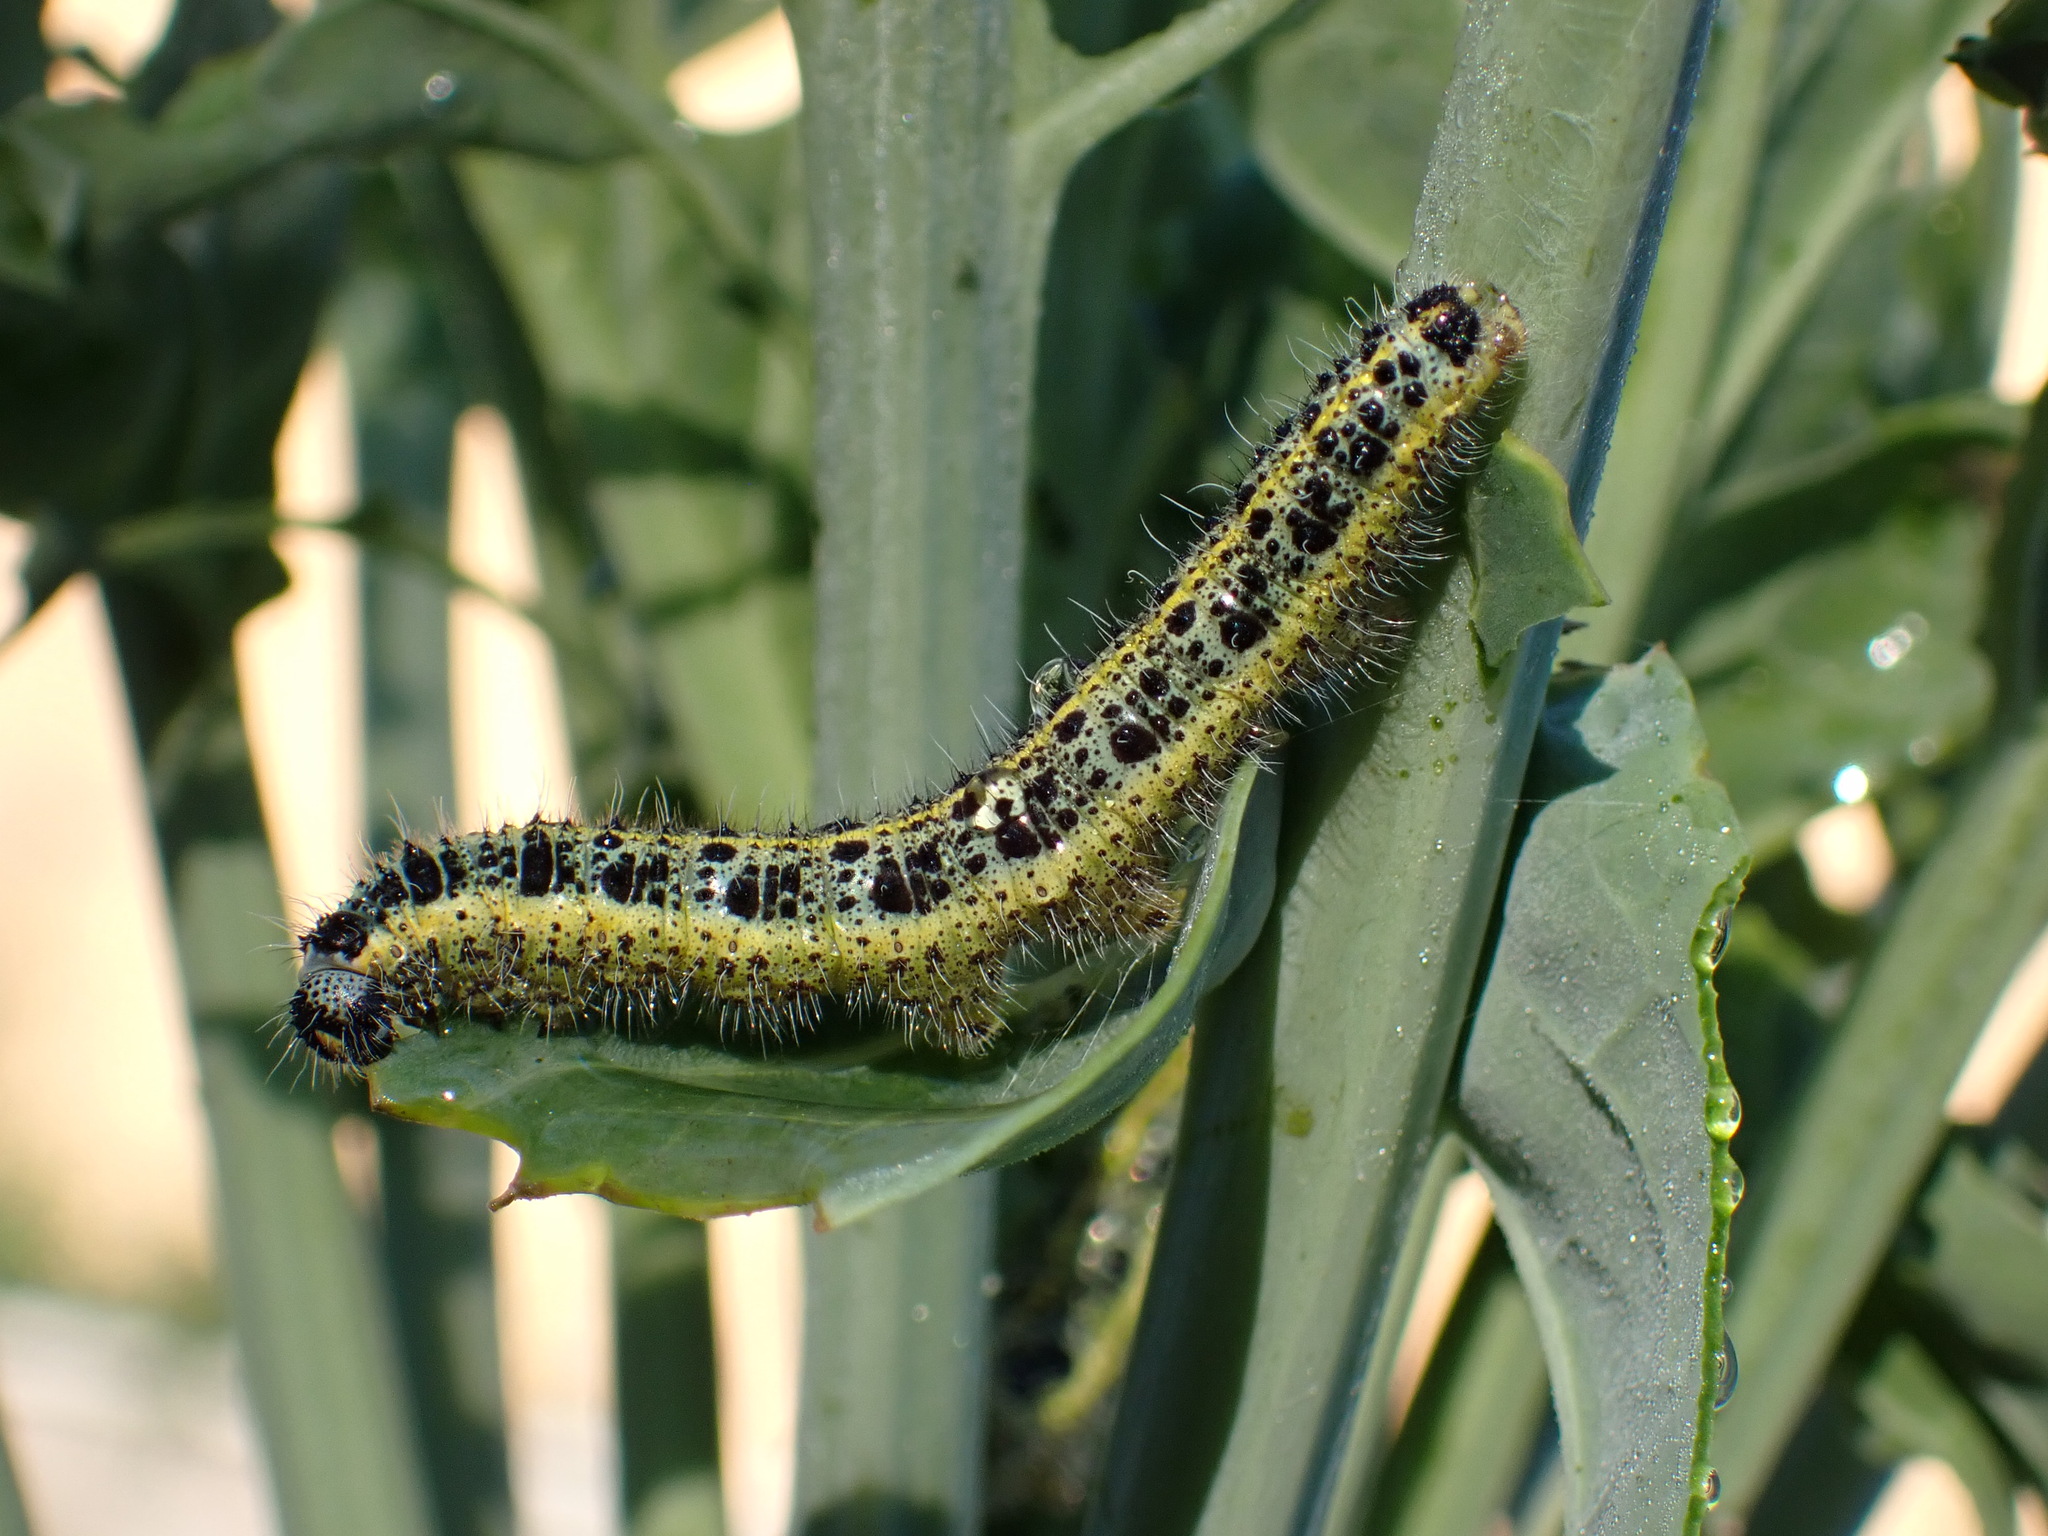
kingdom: Animalia
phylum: Arthropoda
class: Insecta
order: Lepidoptera
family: Pieridae
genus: Pieris
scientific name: Pieris brassicae
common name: Large white
